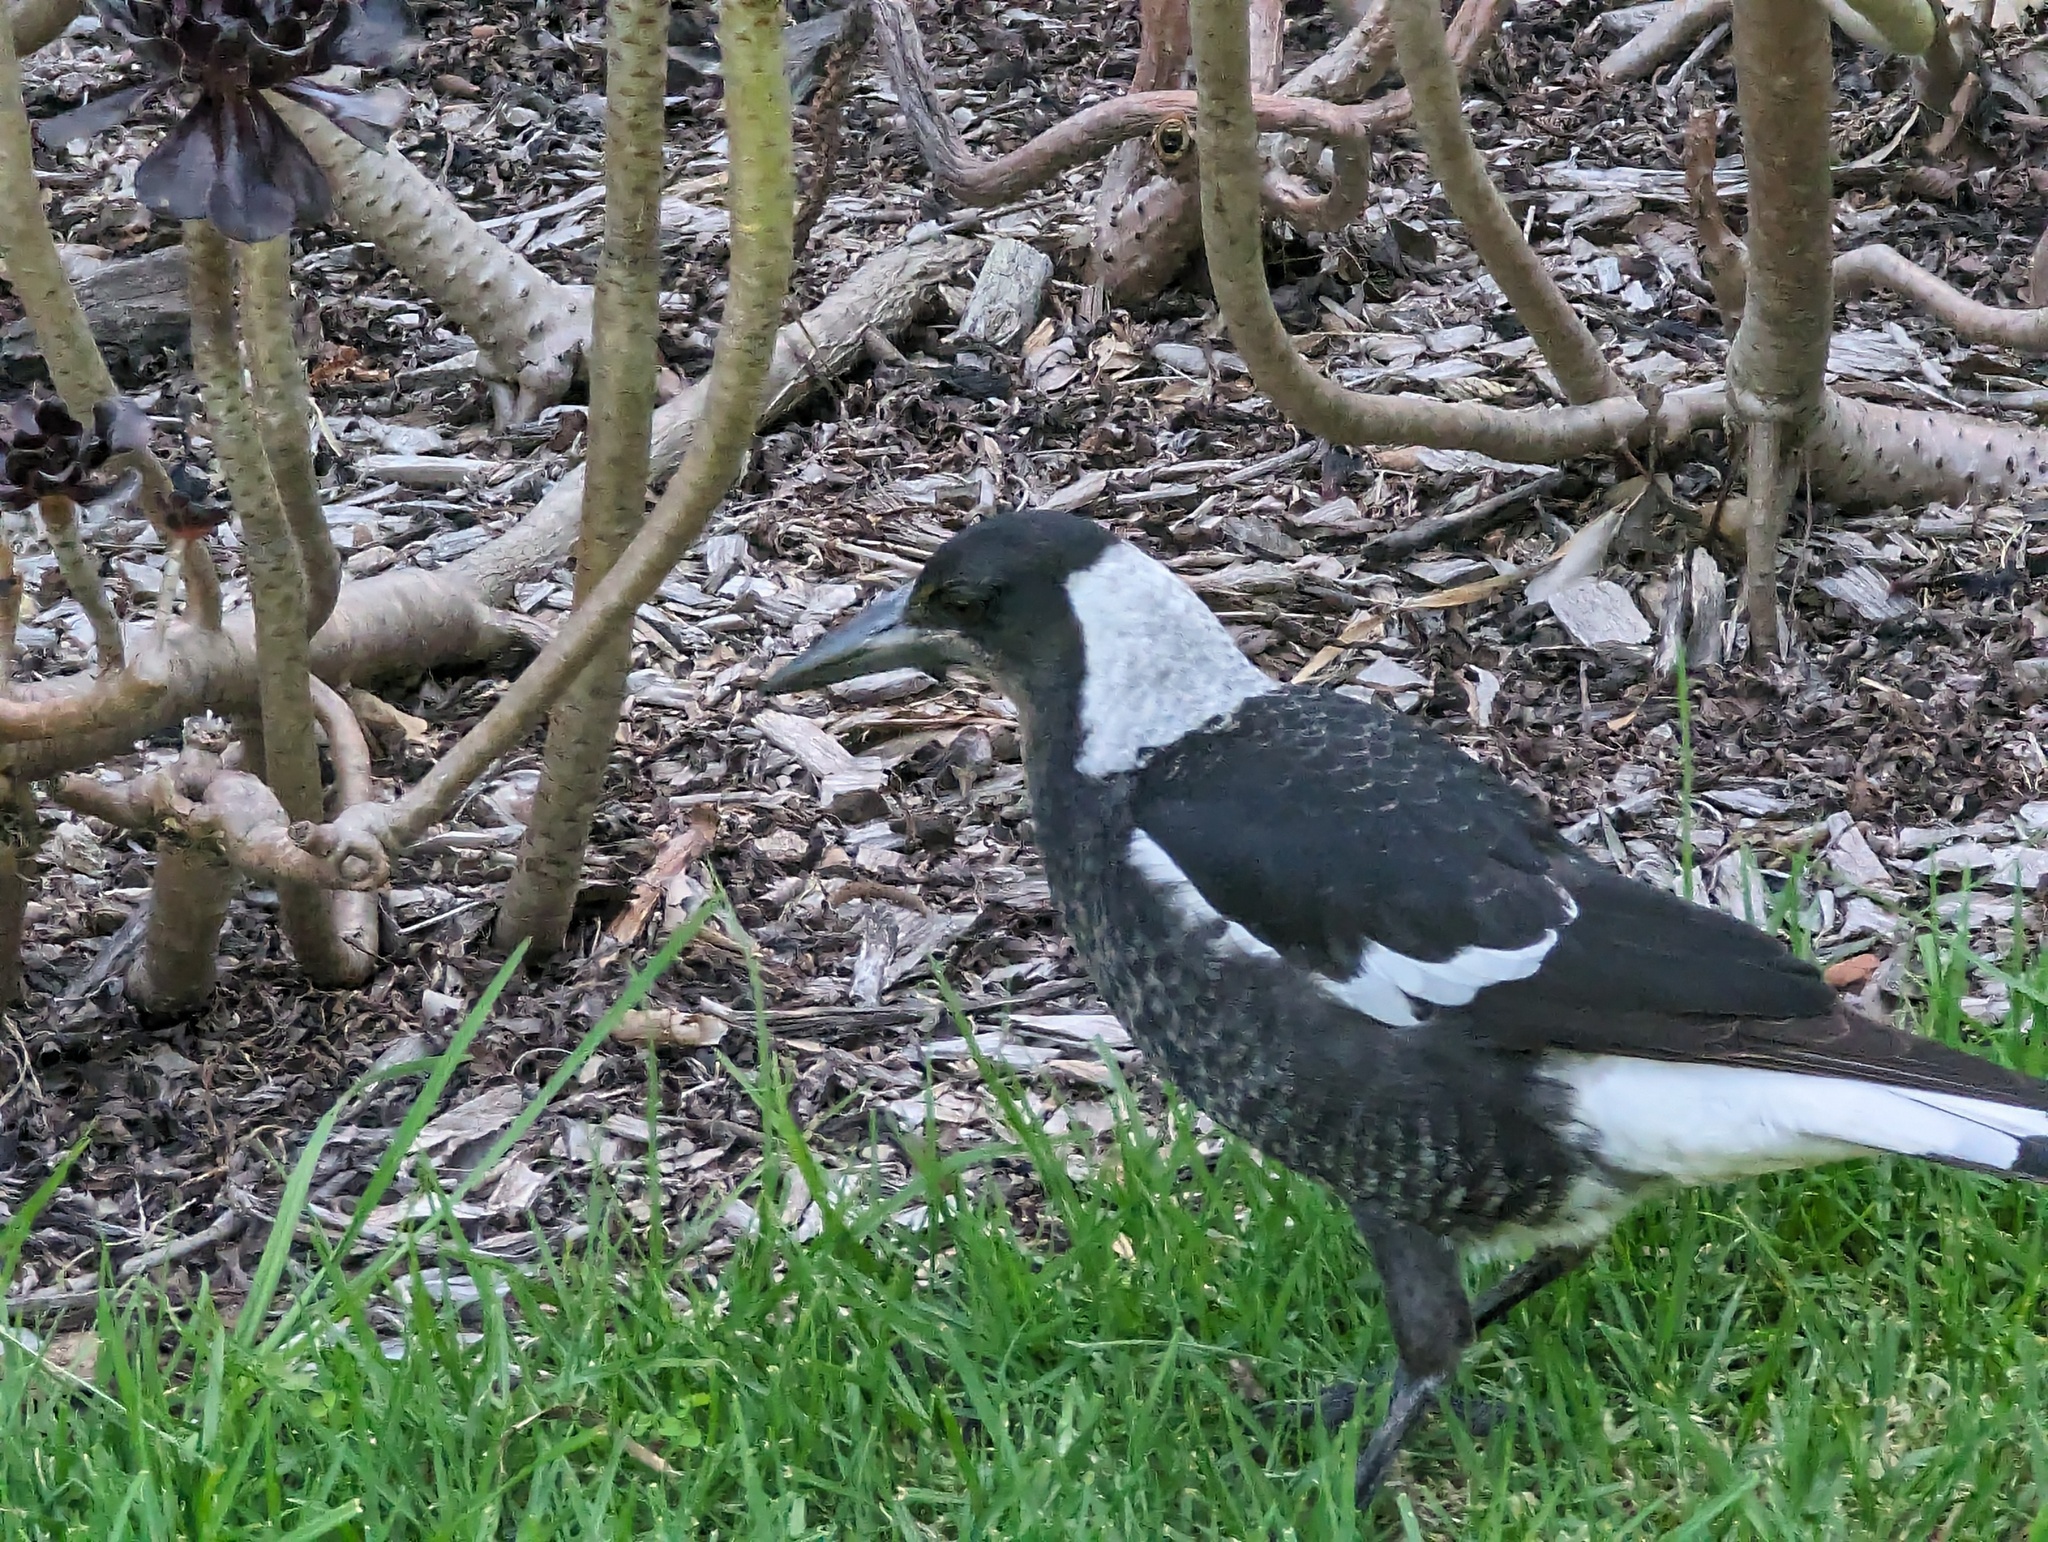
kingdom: Animalia
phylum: Chordata
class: Aves
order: Passeriformes
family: Cracticidae
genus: Gymnorhina
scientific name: Gymnorhina tibicen
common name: Australian magpie
